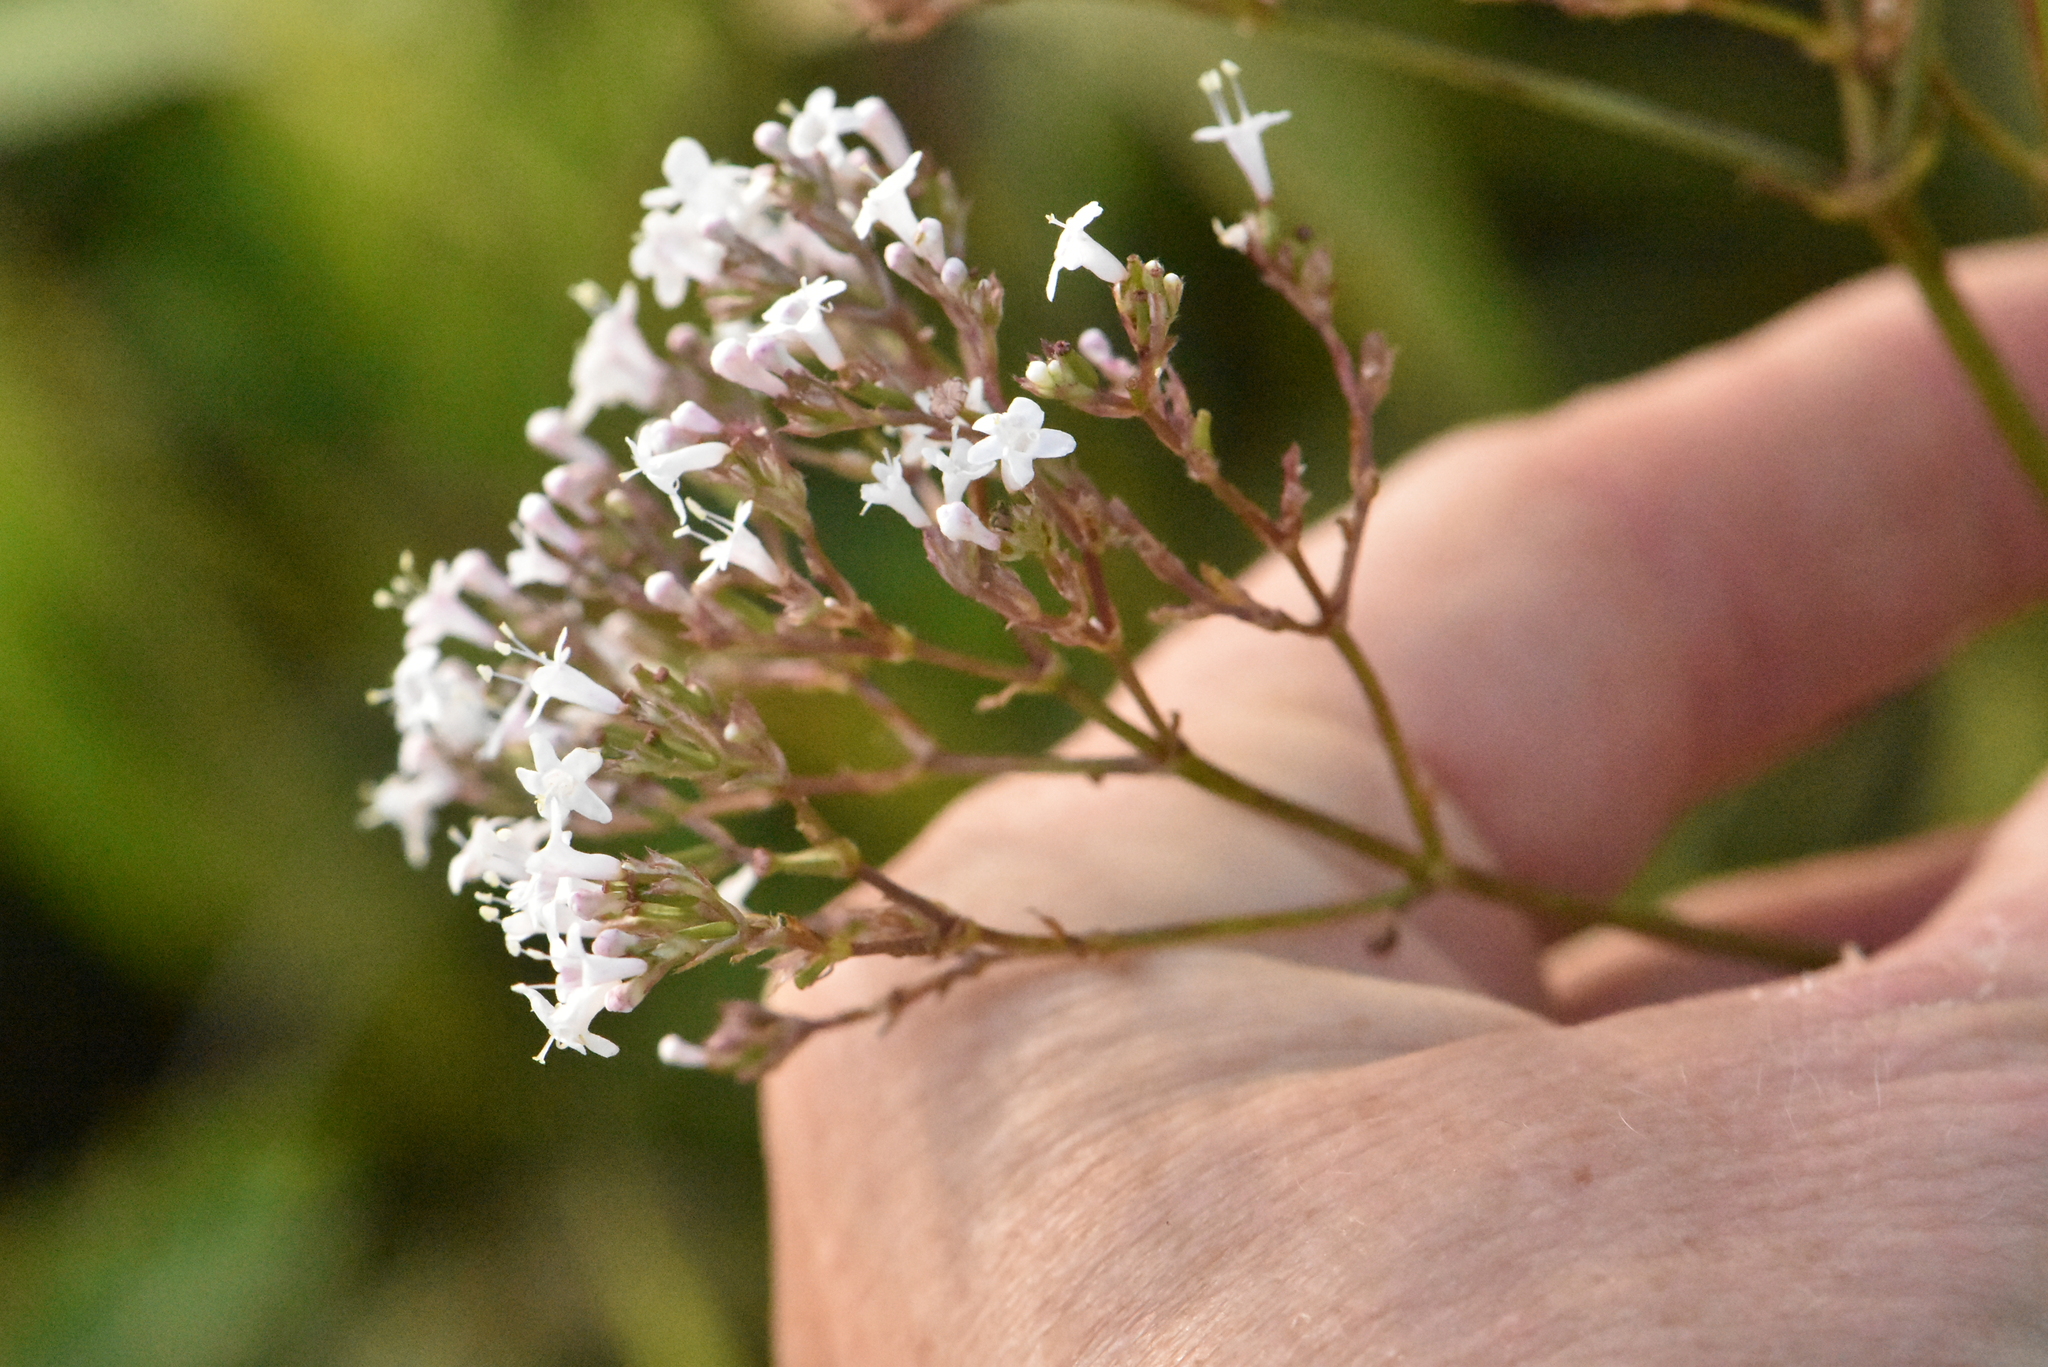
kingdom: Plantae
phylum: Tracheophyta
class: Magnoliopsida
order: Dipsacales
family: Caprifoliaceae
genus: Valeriana
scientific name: Valeriana officinalis
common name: Common valerian
